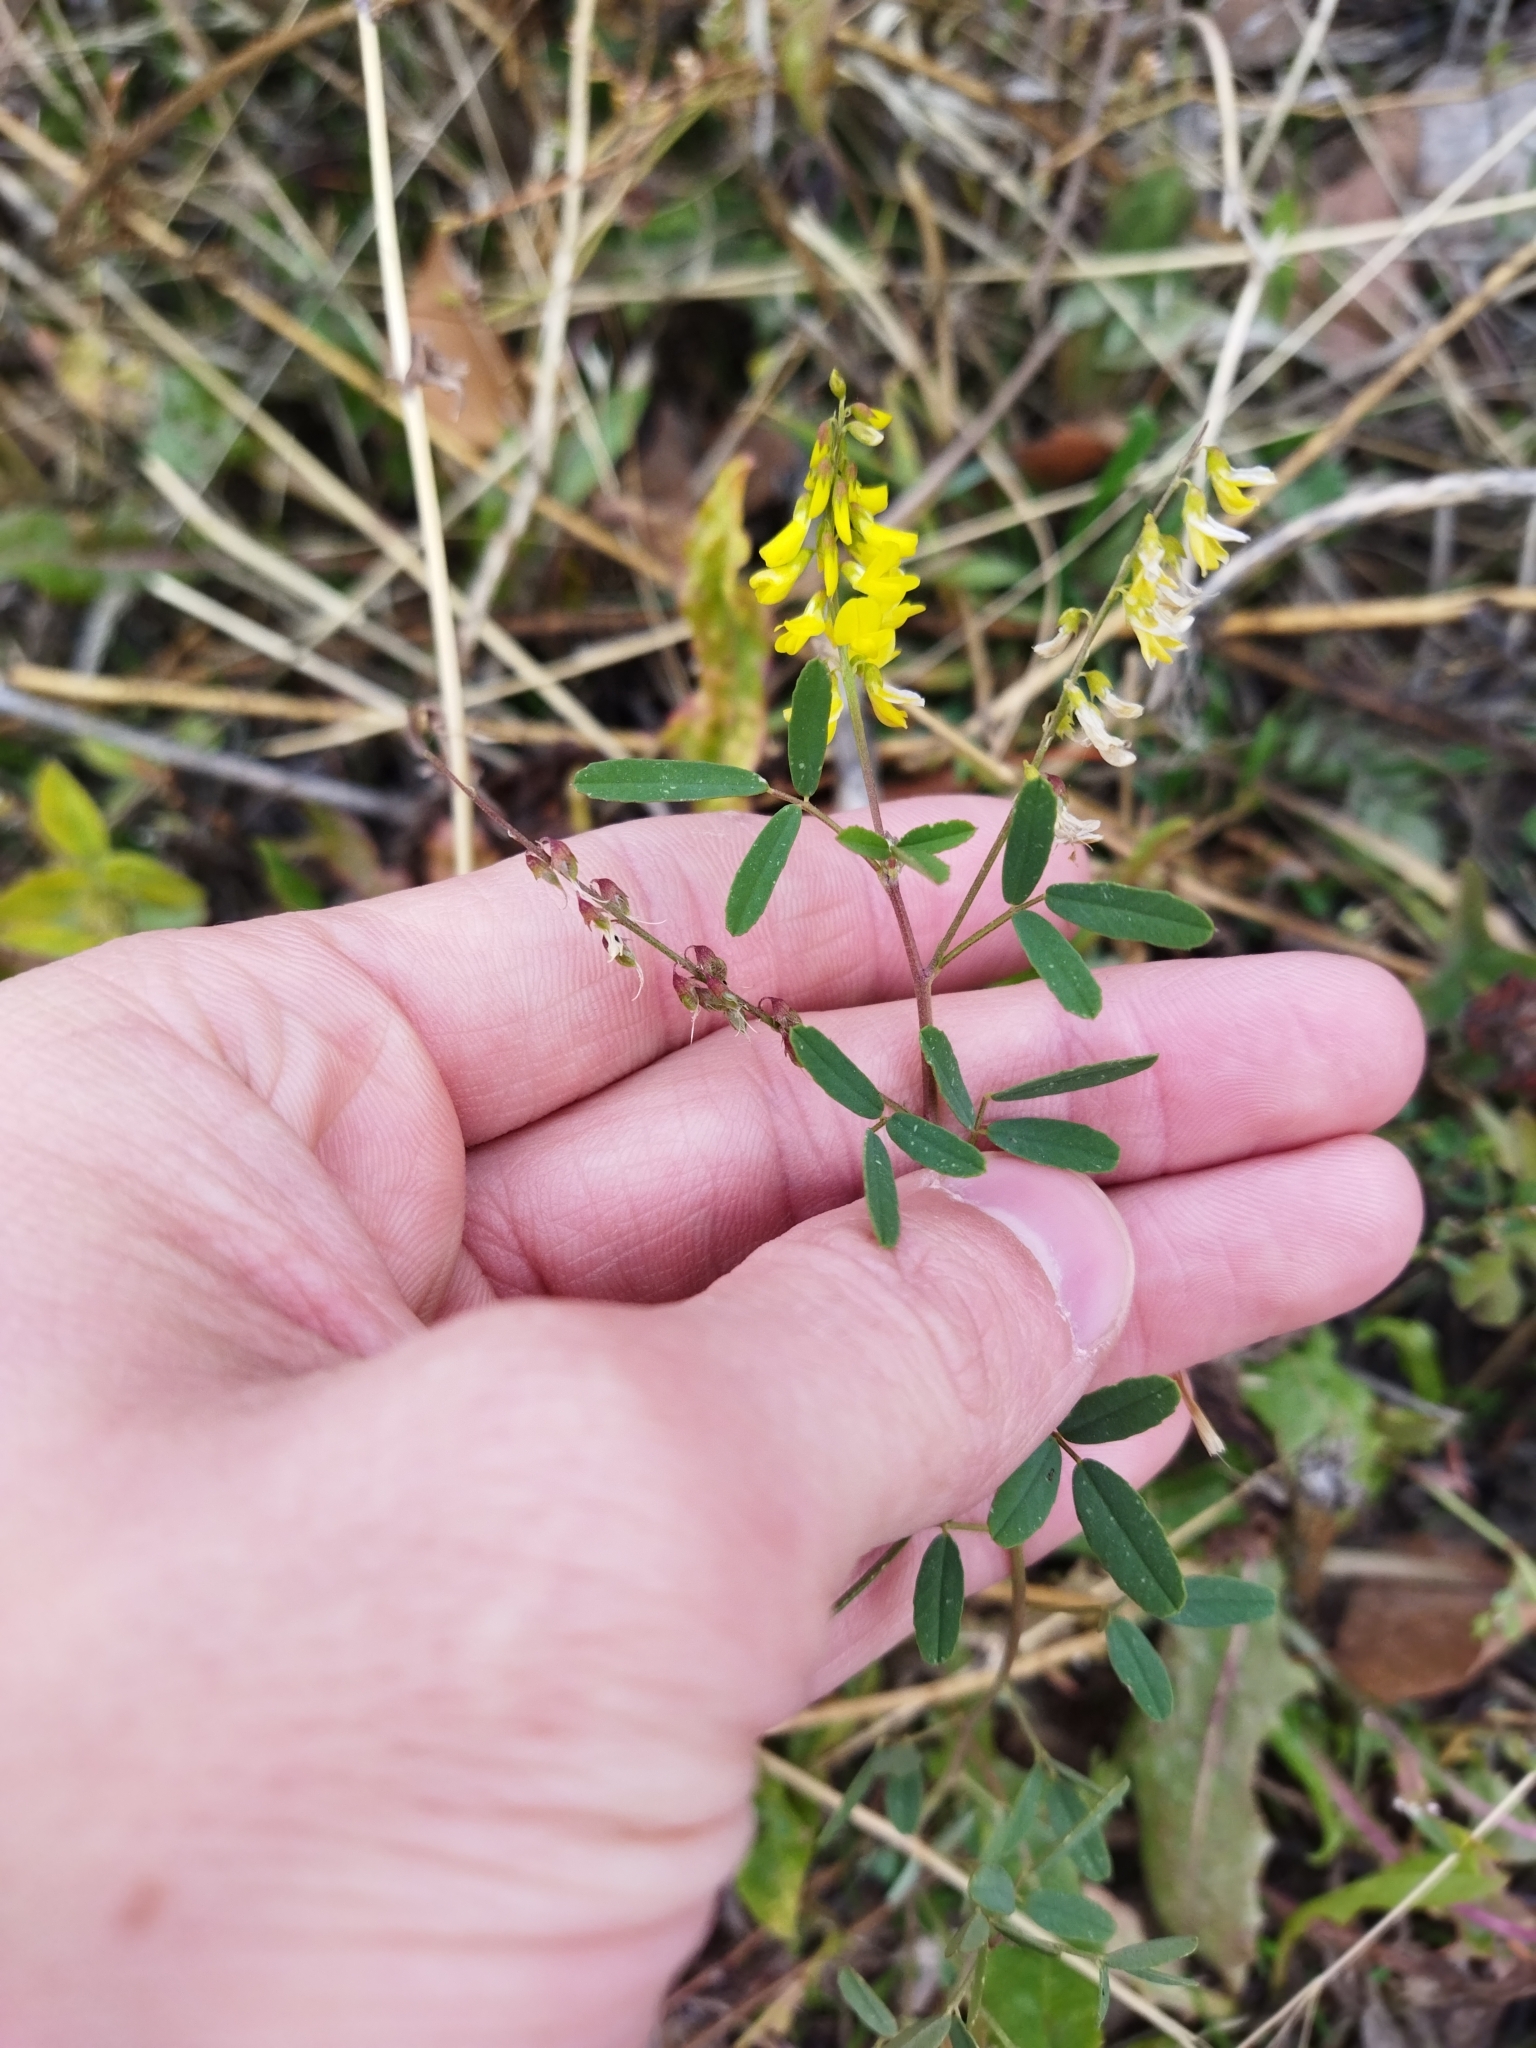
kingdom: Plantae
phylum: Tracheophyta
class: Magnoliopsida
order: Fabales
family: Fabaceae
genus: Melilotus
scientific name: Melilotus officinalis
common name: Sweetclover
